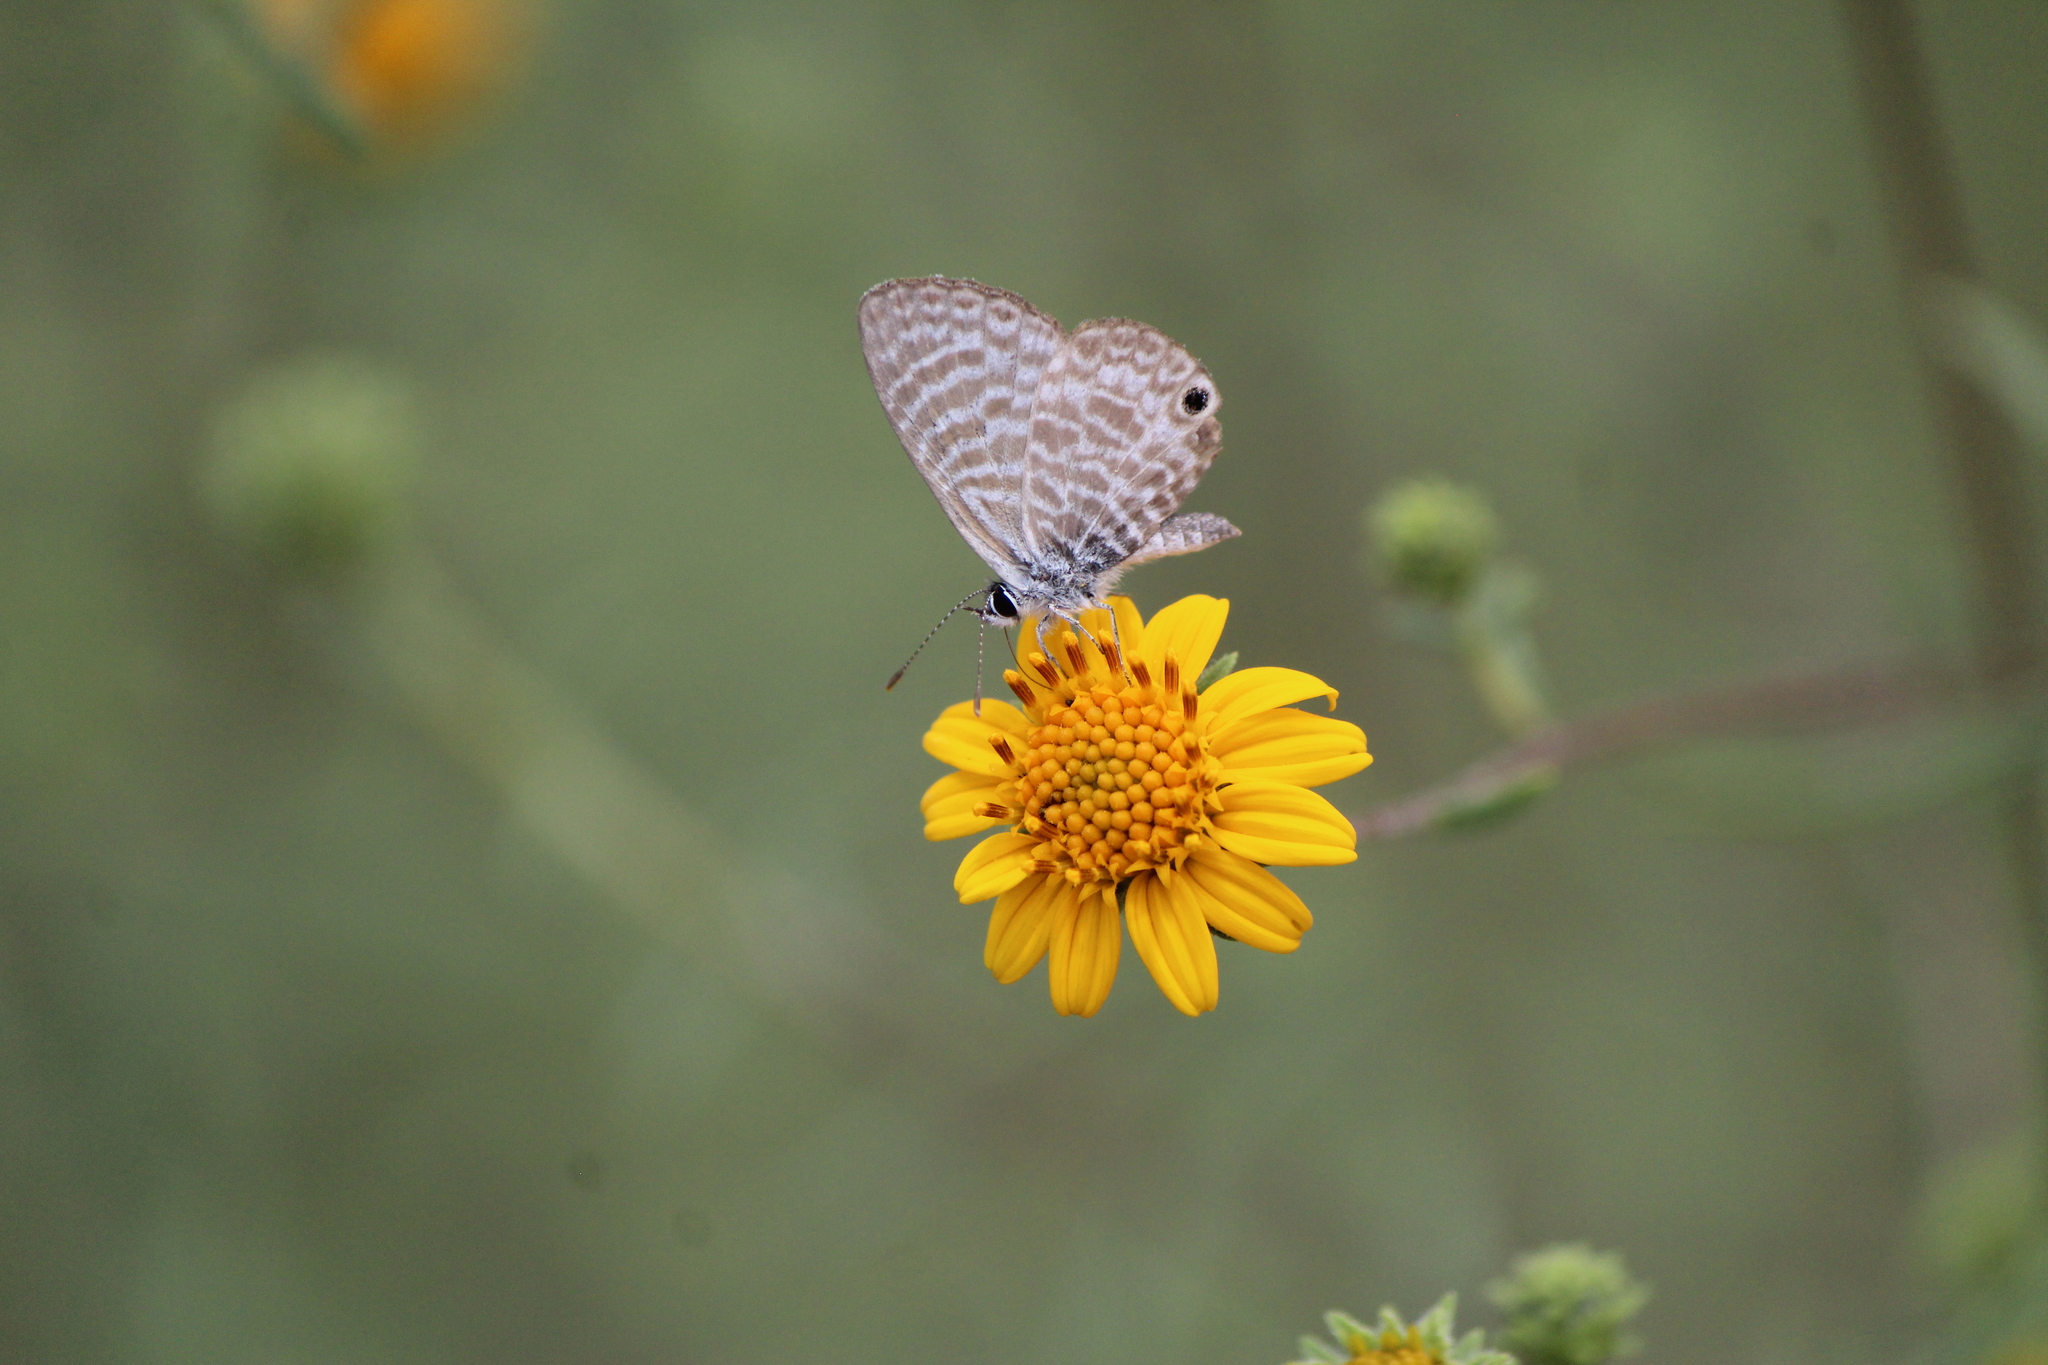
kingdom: Animalia
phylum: Arthropoda
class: Insecta
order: Lepidoptera
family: Lycaenidae
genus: Leptotes
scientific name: Leptotes marina
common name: Marine blue
